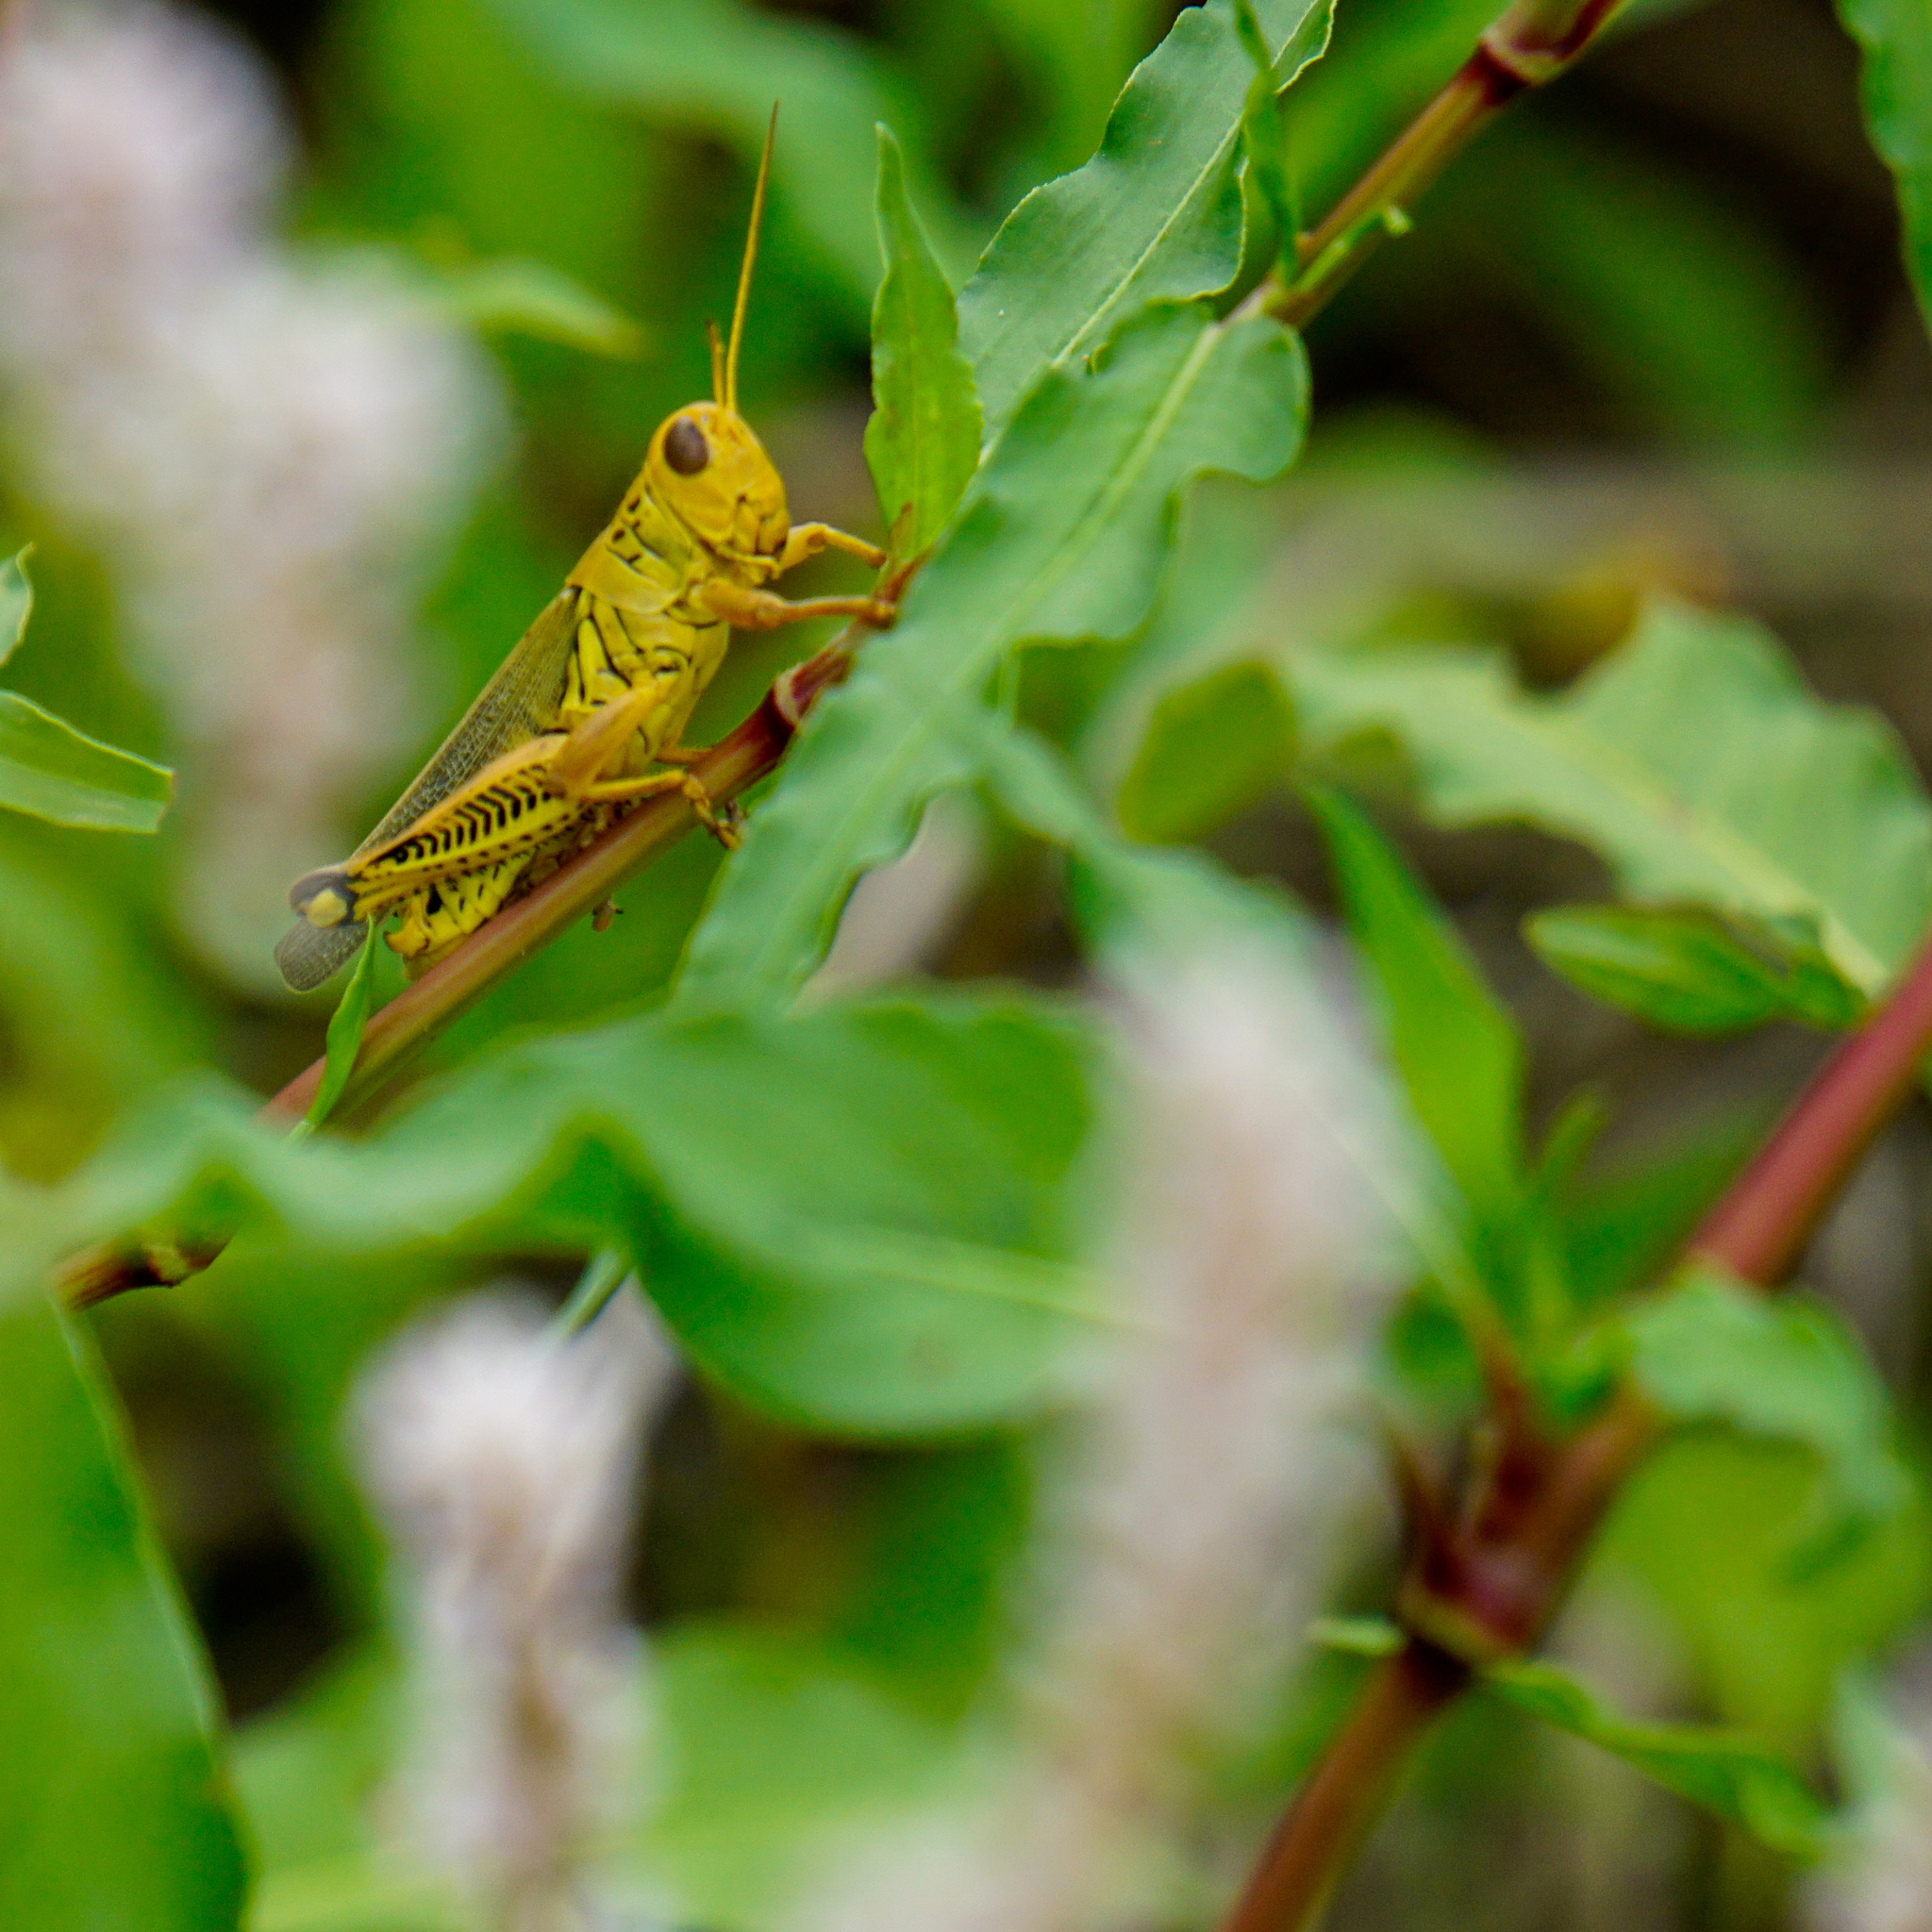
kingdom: Animalia
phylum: Arthropoda
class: Insecta
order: Orthoptera
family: Acrididae
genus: Melanoplus
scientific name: Melanoplus differentialis
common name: Differential grasshopper
